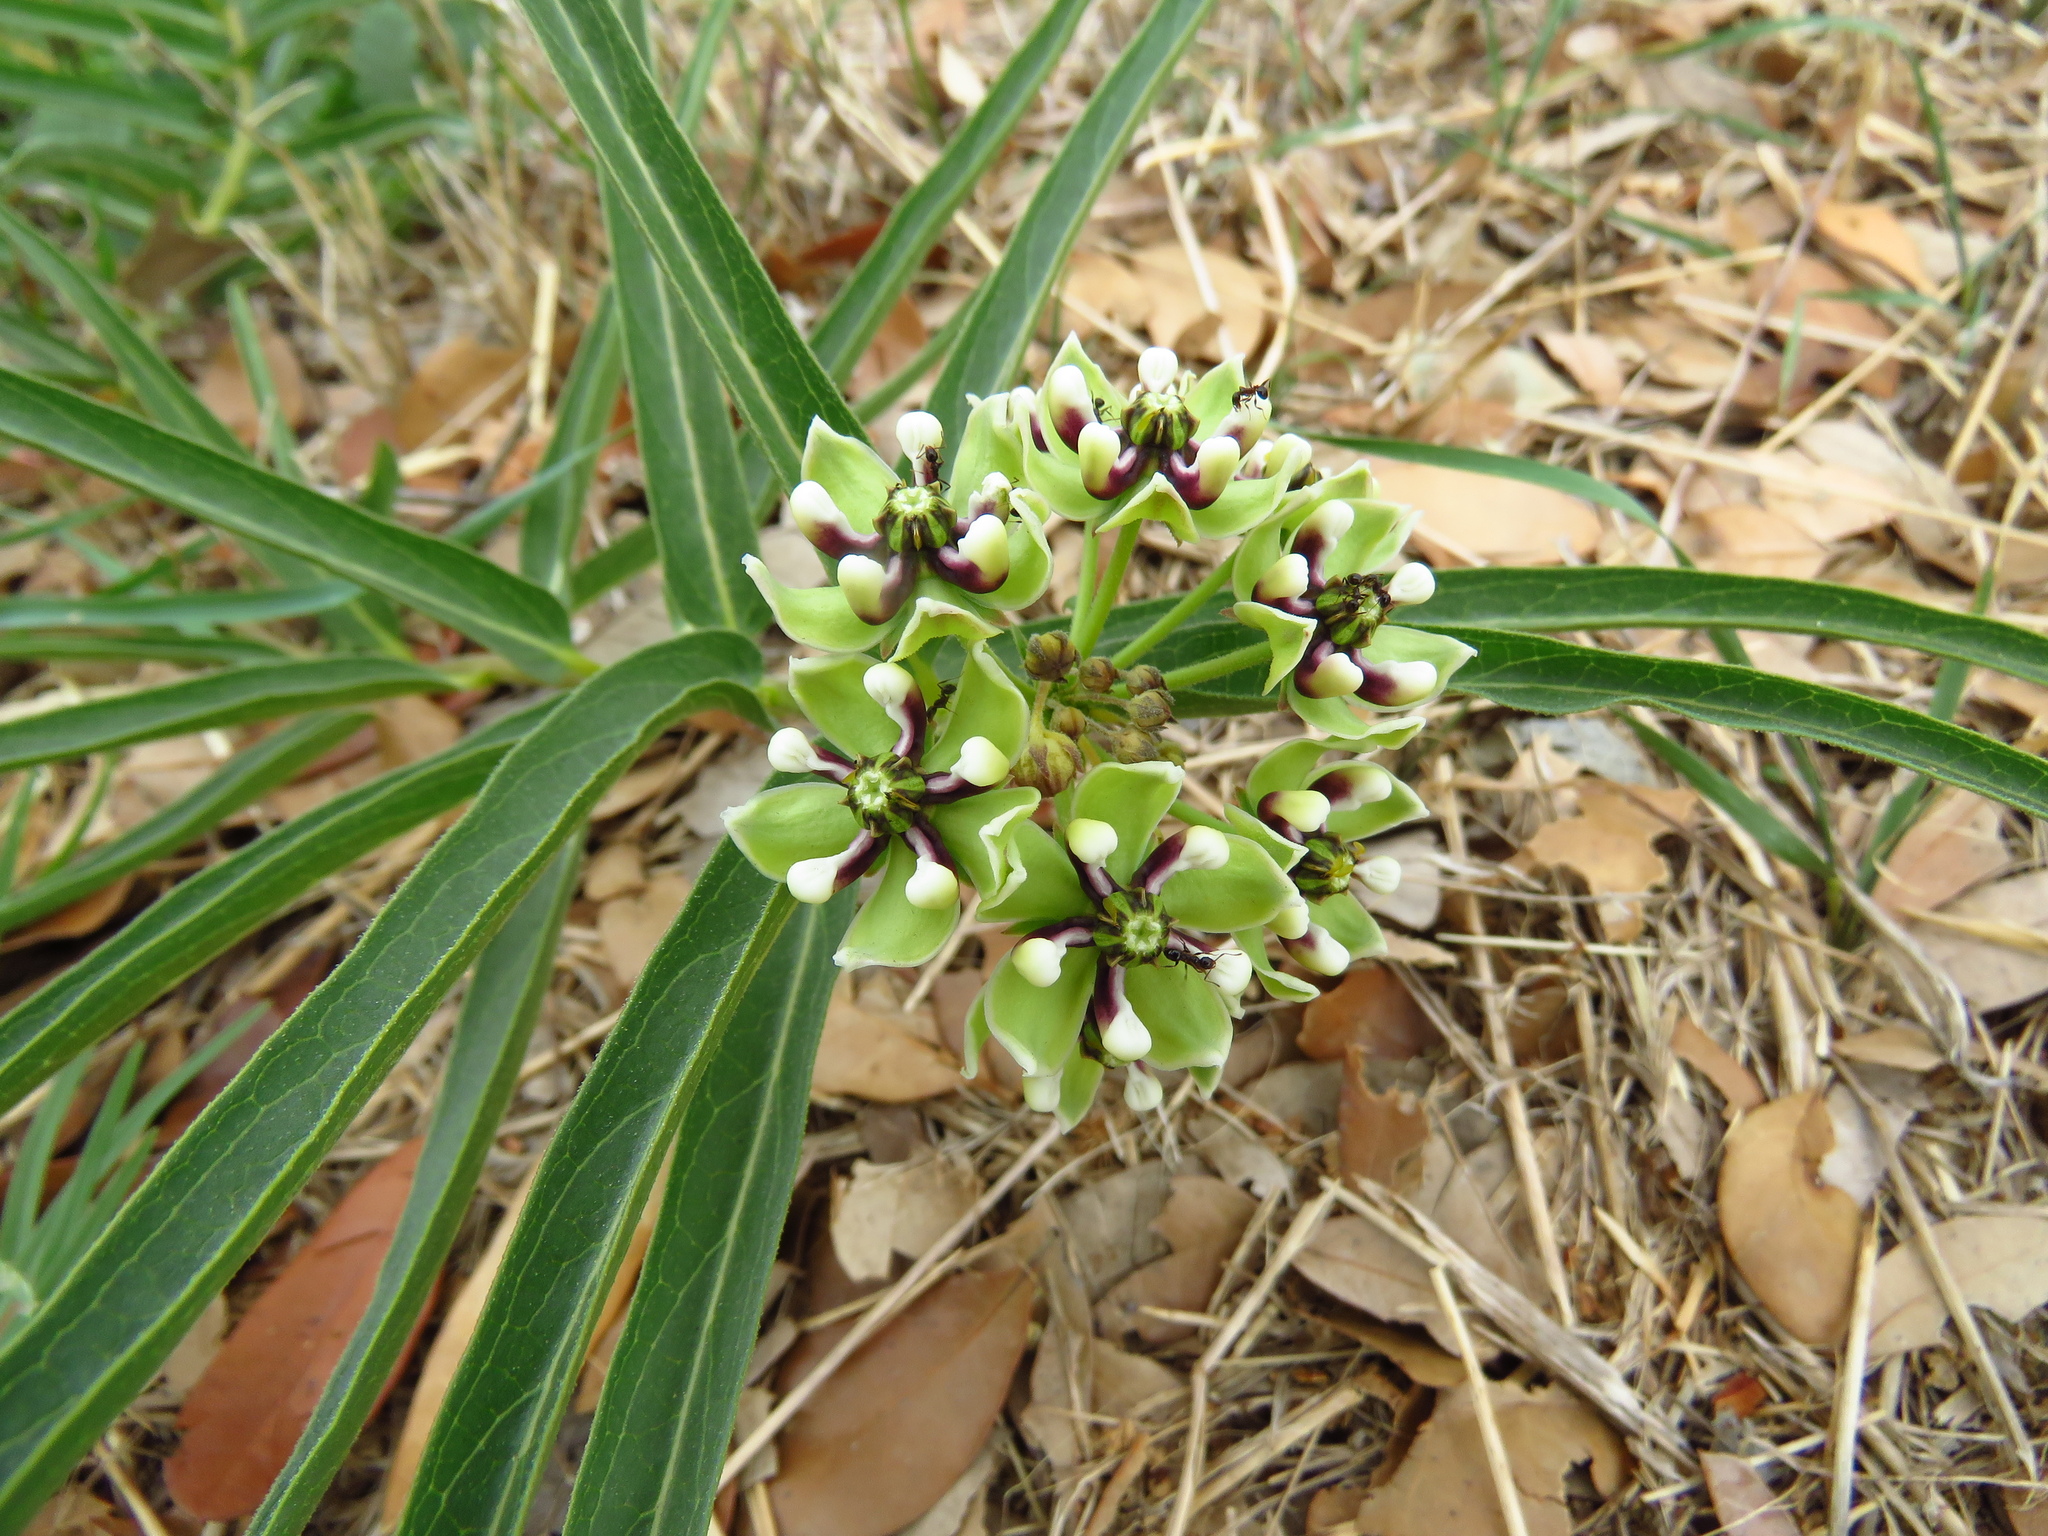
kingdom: Plantae
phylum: Tracheophyta
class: Magnoliopsida
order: Gentianales
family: Apocynaceae
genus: Asclepias
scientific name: Asclepias asperula
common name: Antelope horns
